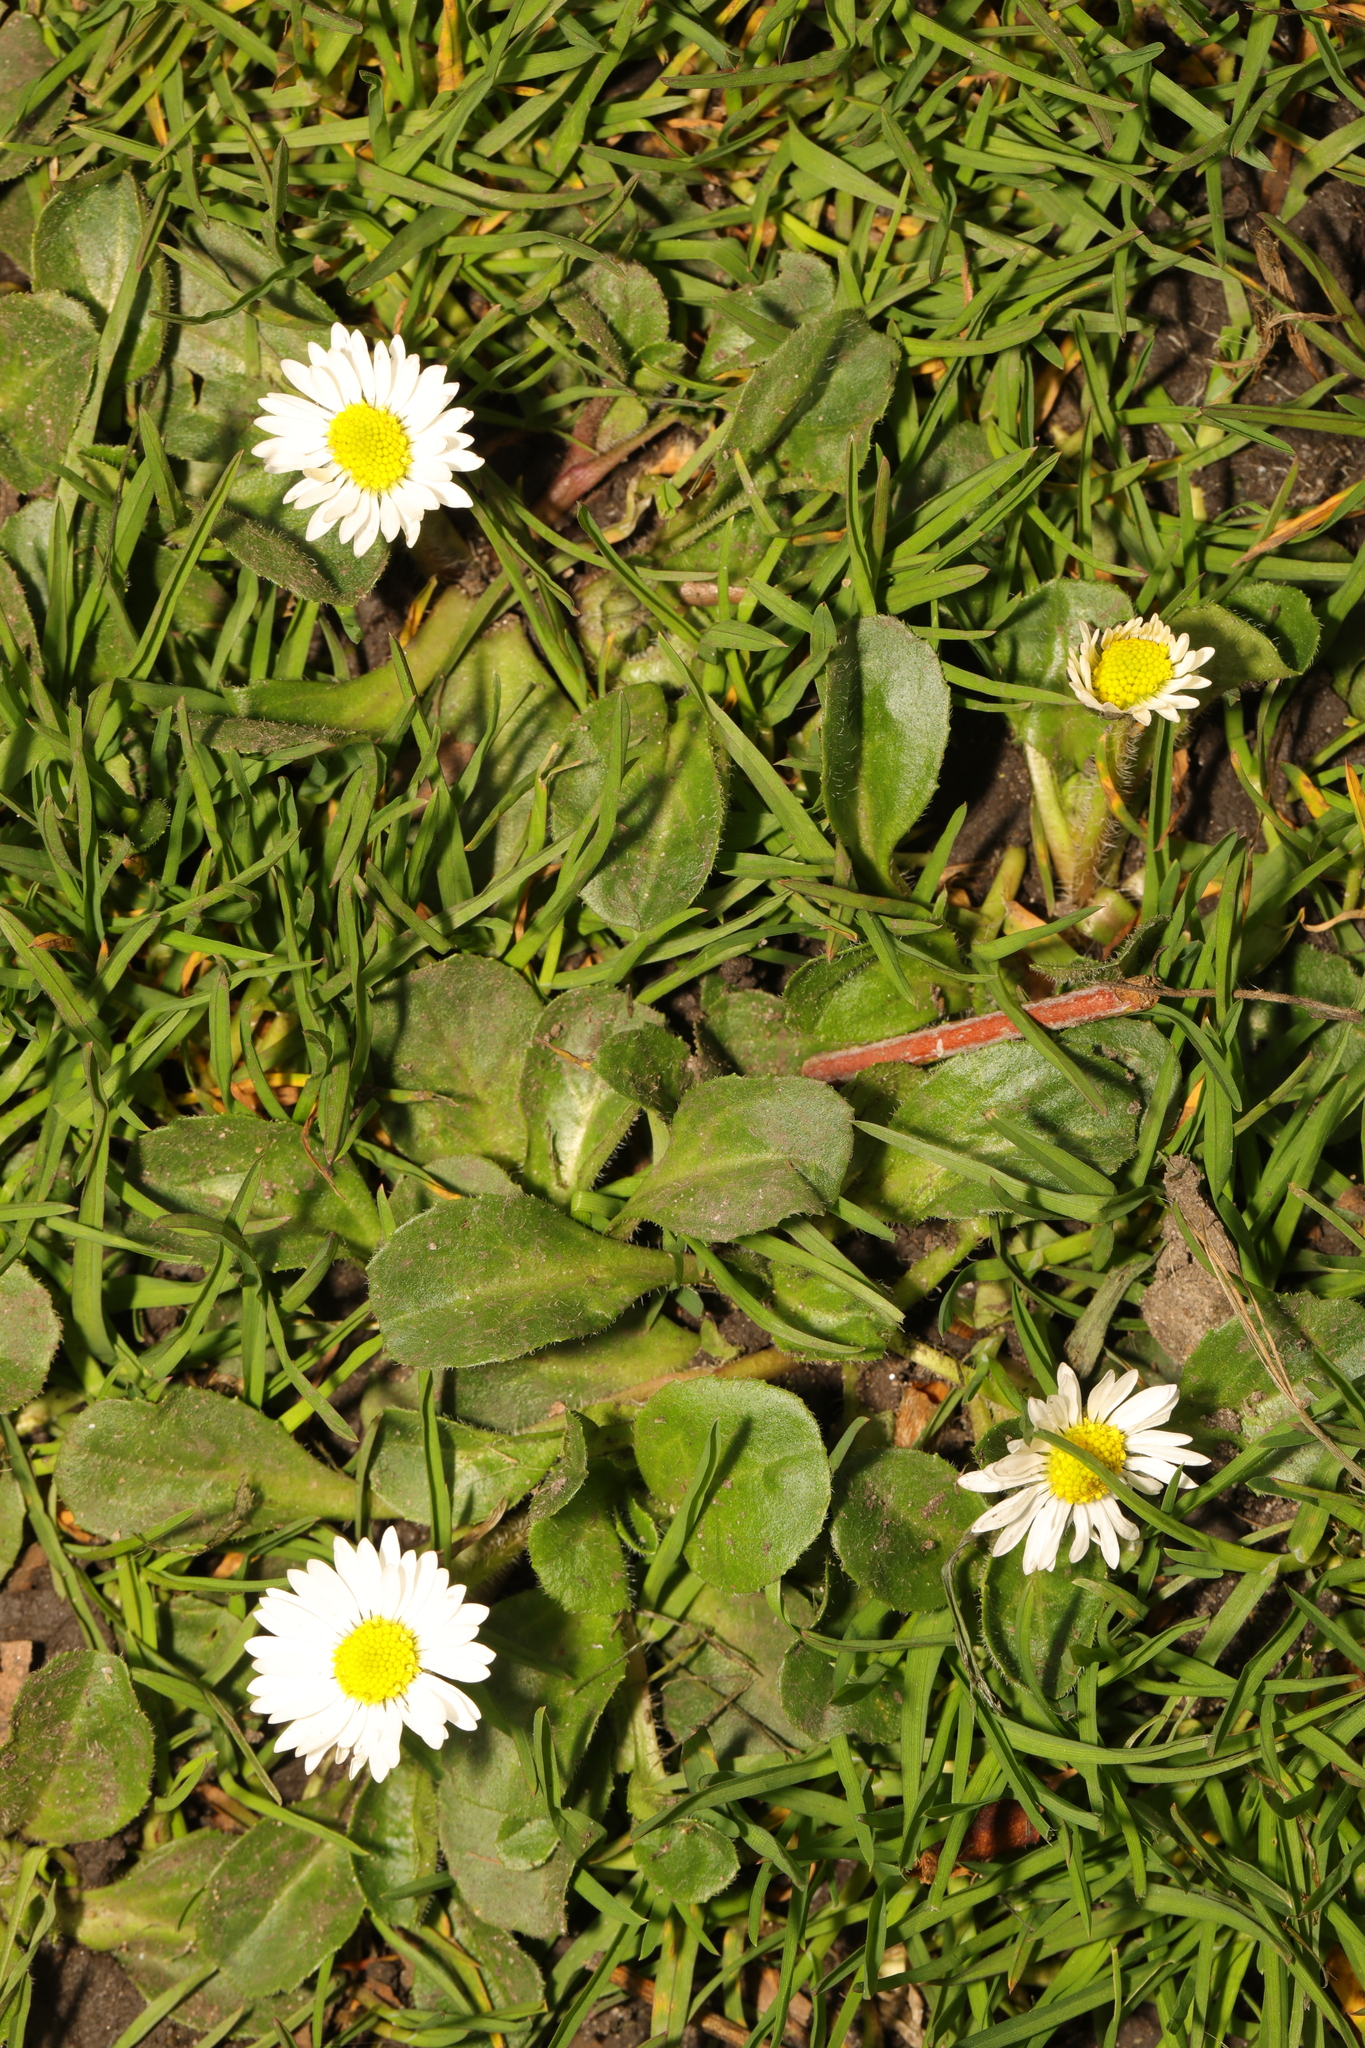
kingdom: Plantae
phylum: Tracheophyta
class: Magnoliopsida
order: Asterales
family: Asteraceae
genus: Bellis
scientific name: Bellis perennis
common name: Lawndaisy
